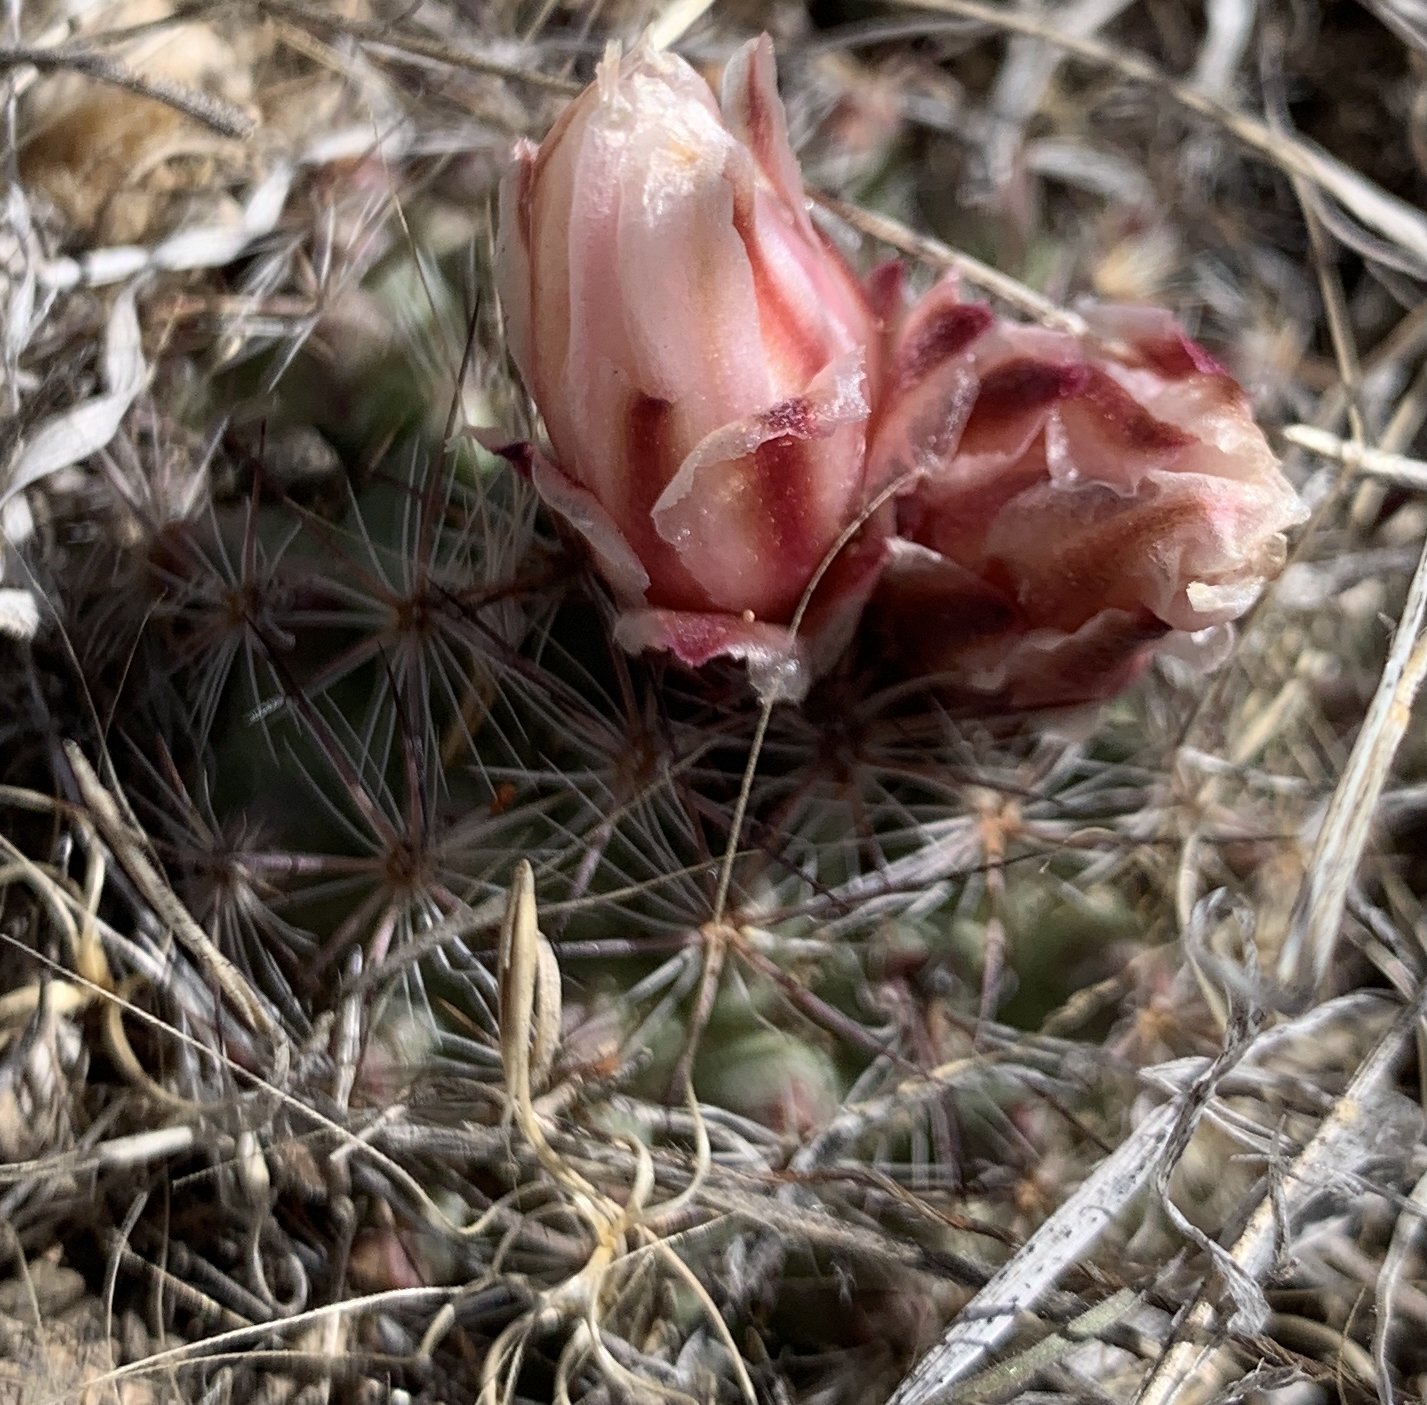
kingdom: Plantae
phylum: Tracheophyta
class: Magnoliopsida
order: Caryophyllales
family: Cactaceae
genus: Pediocactus
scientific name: Pediocactus simpsonii
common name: Simpson's hedgehog cactus
